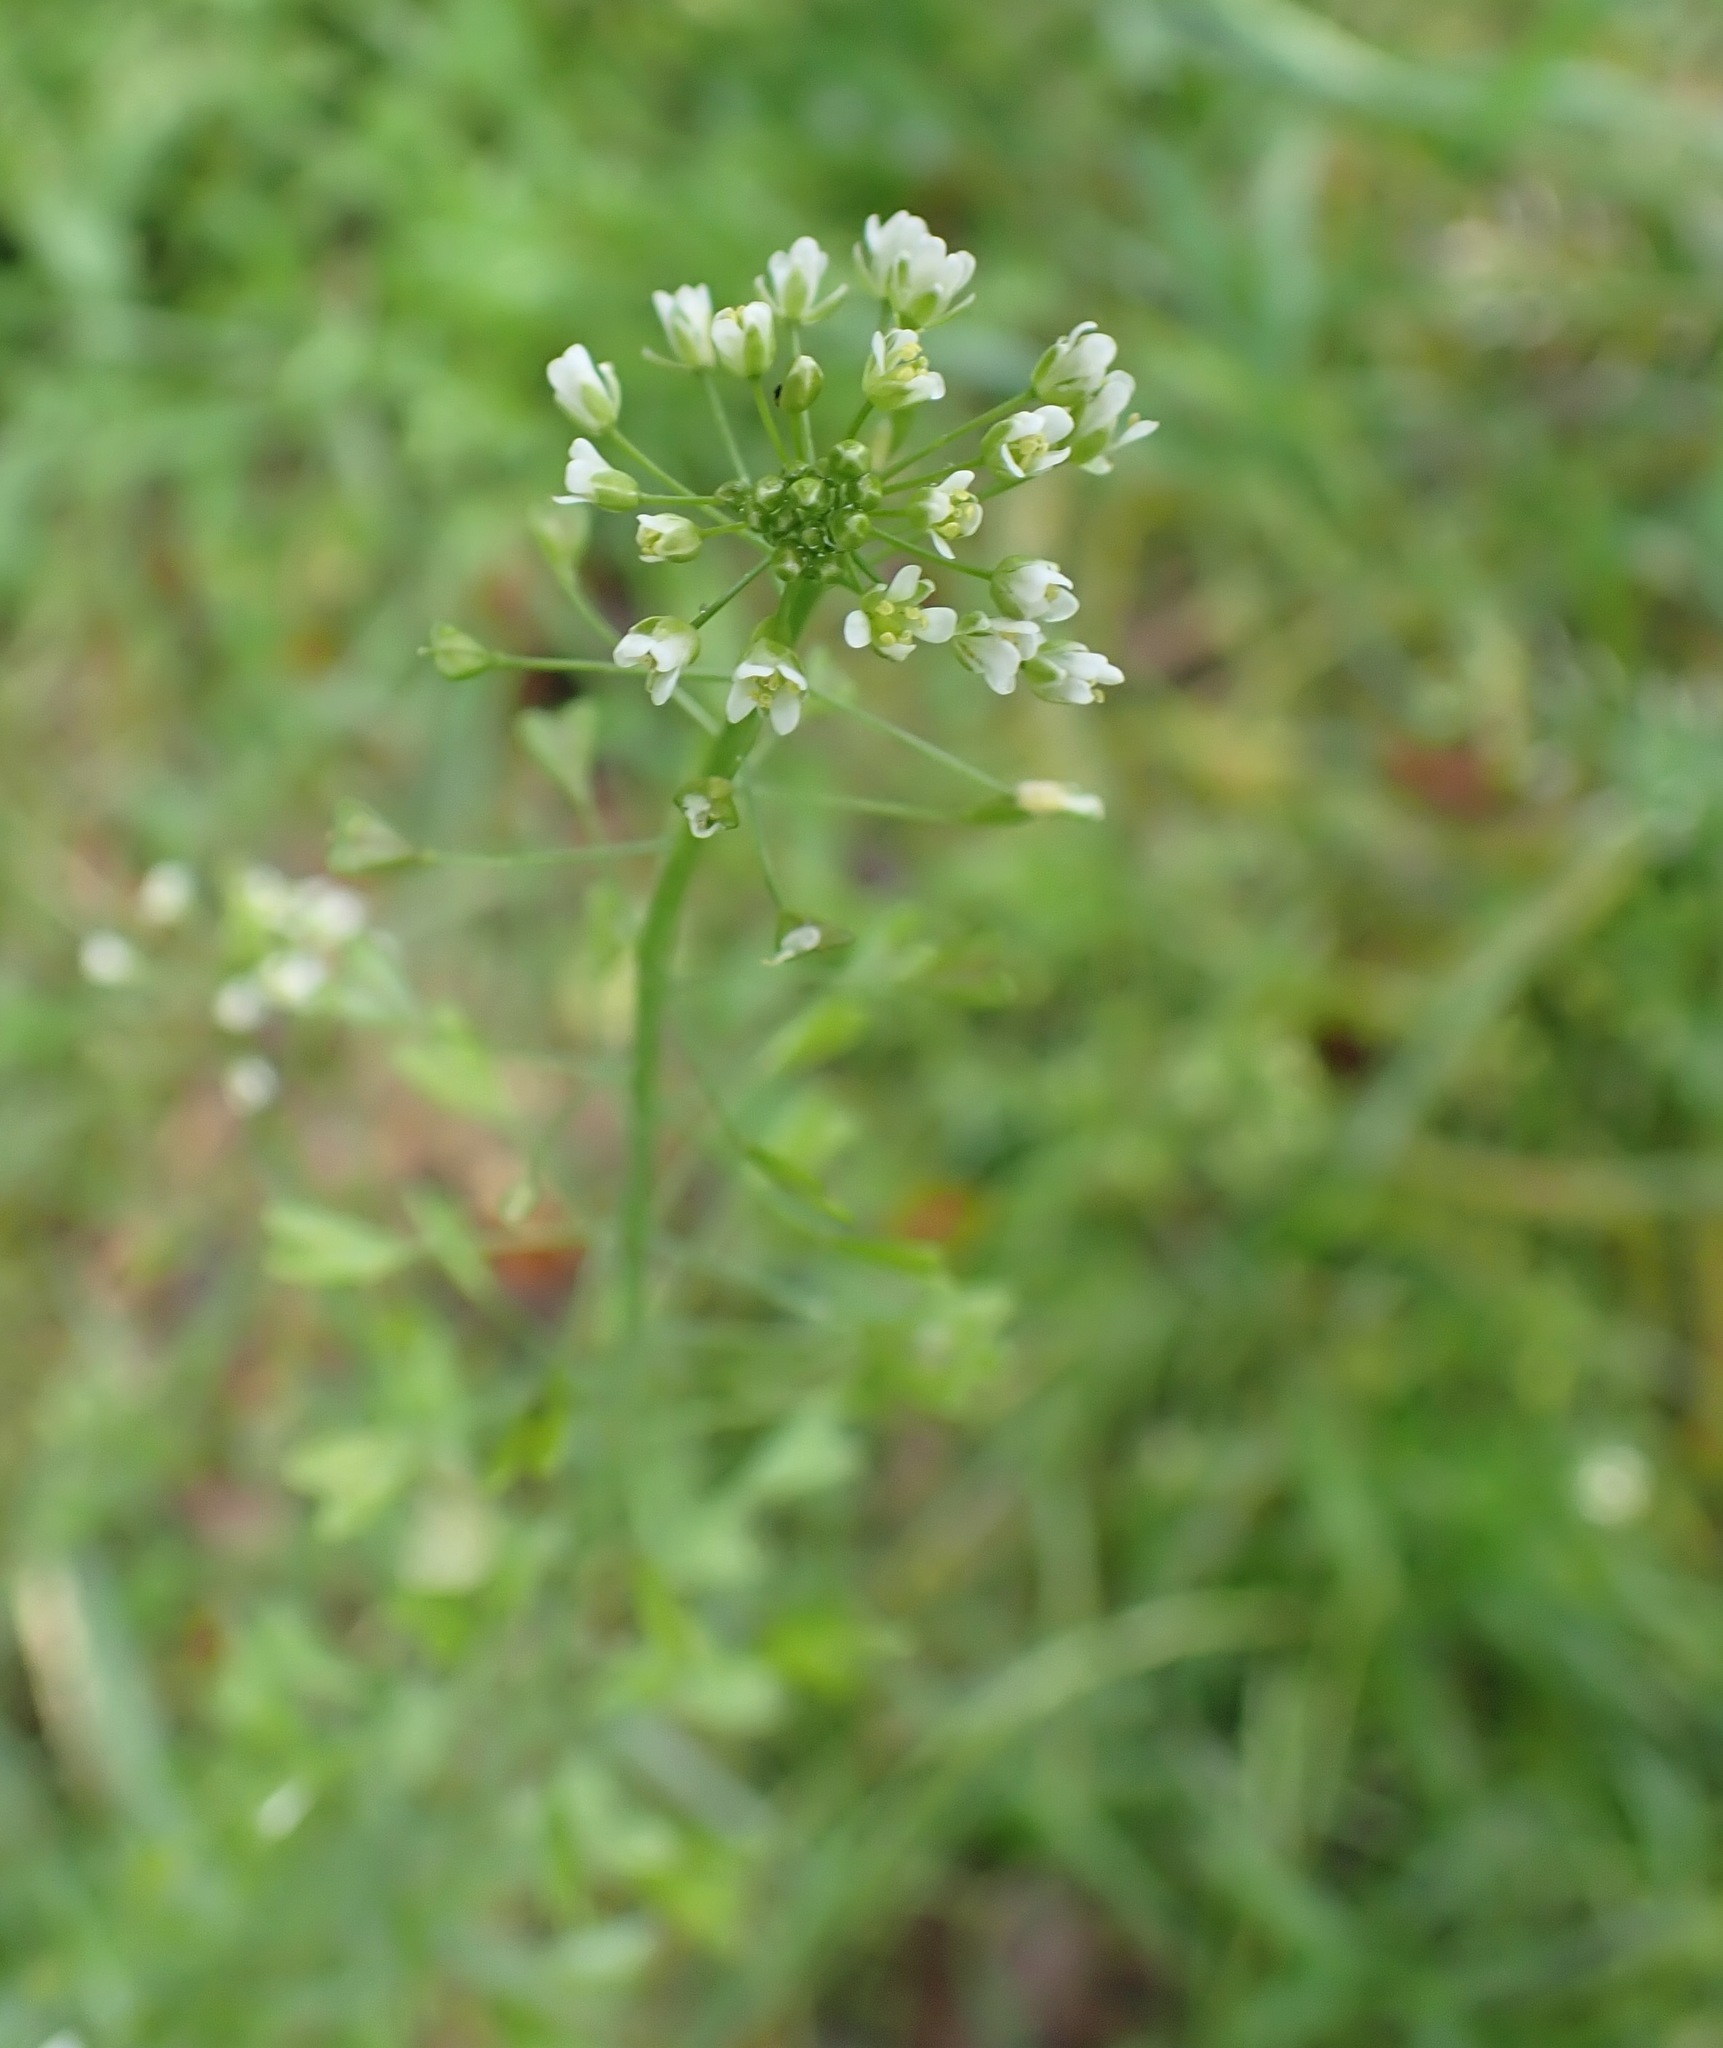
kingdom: Plantae
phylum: Tracheophyta
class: Magnoliopsida
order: Brassicales
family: Brassicaceae
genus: Capsella
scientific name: Capsella bursa-pastoris
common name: Shepherd's purse
